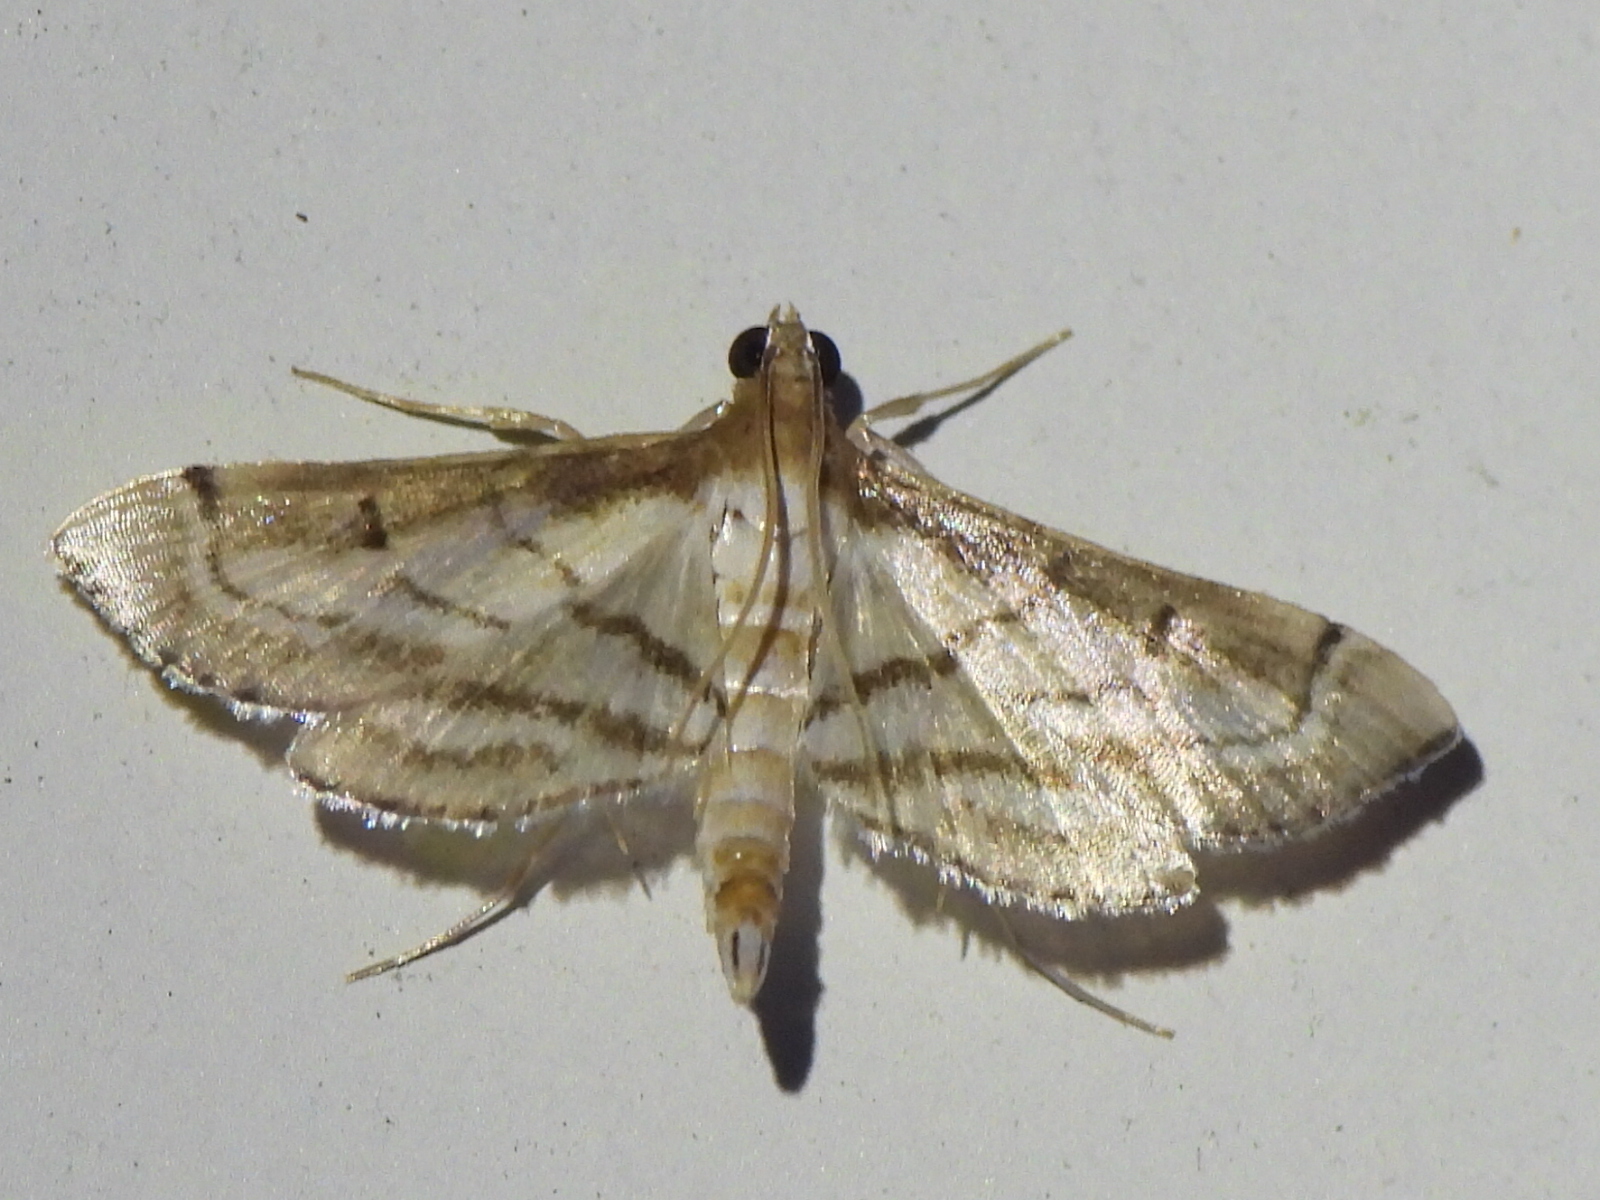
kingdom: Animalia
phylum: Arthropoda
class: Insecta
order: Lepidoptera
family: Crambidae
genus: Cnaphalocrocis
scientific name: Cnaphalocrocis Marasmia cochrusalis
